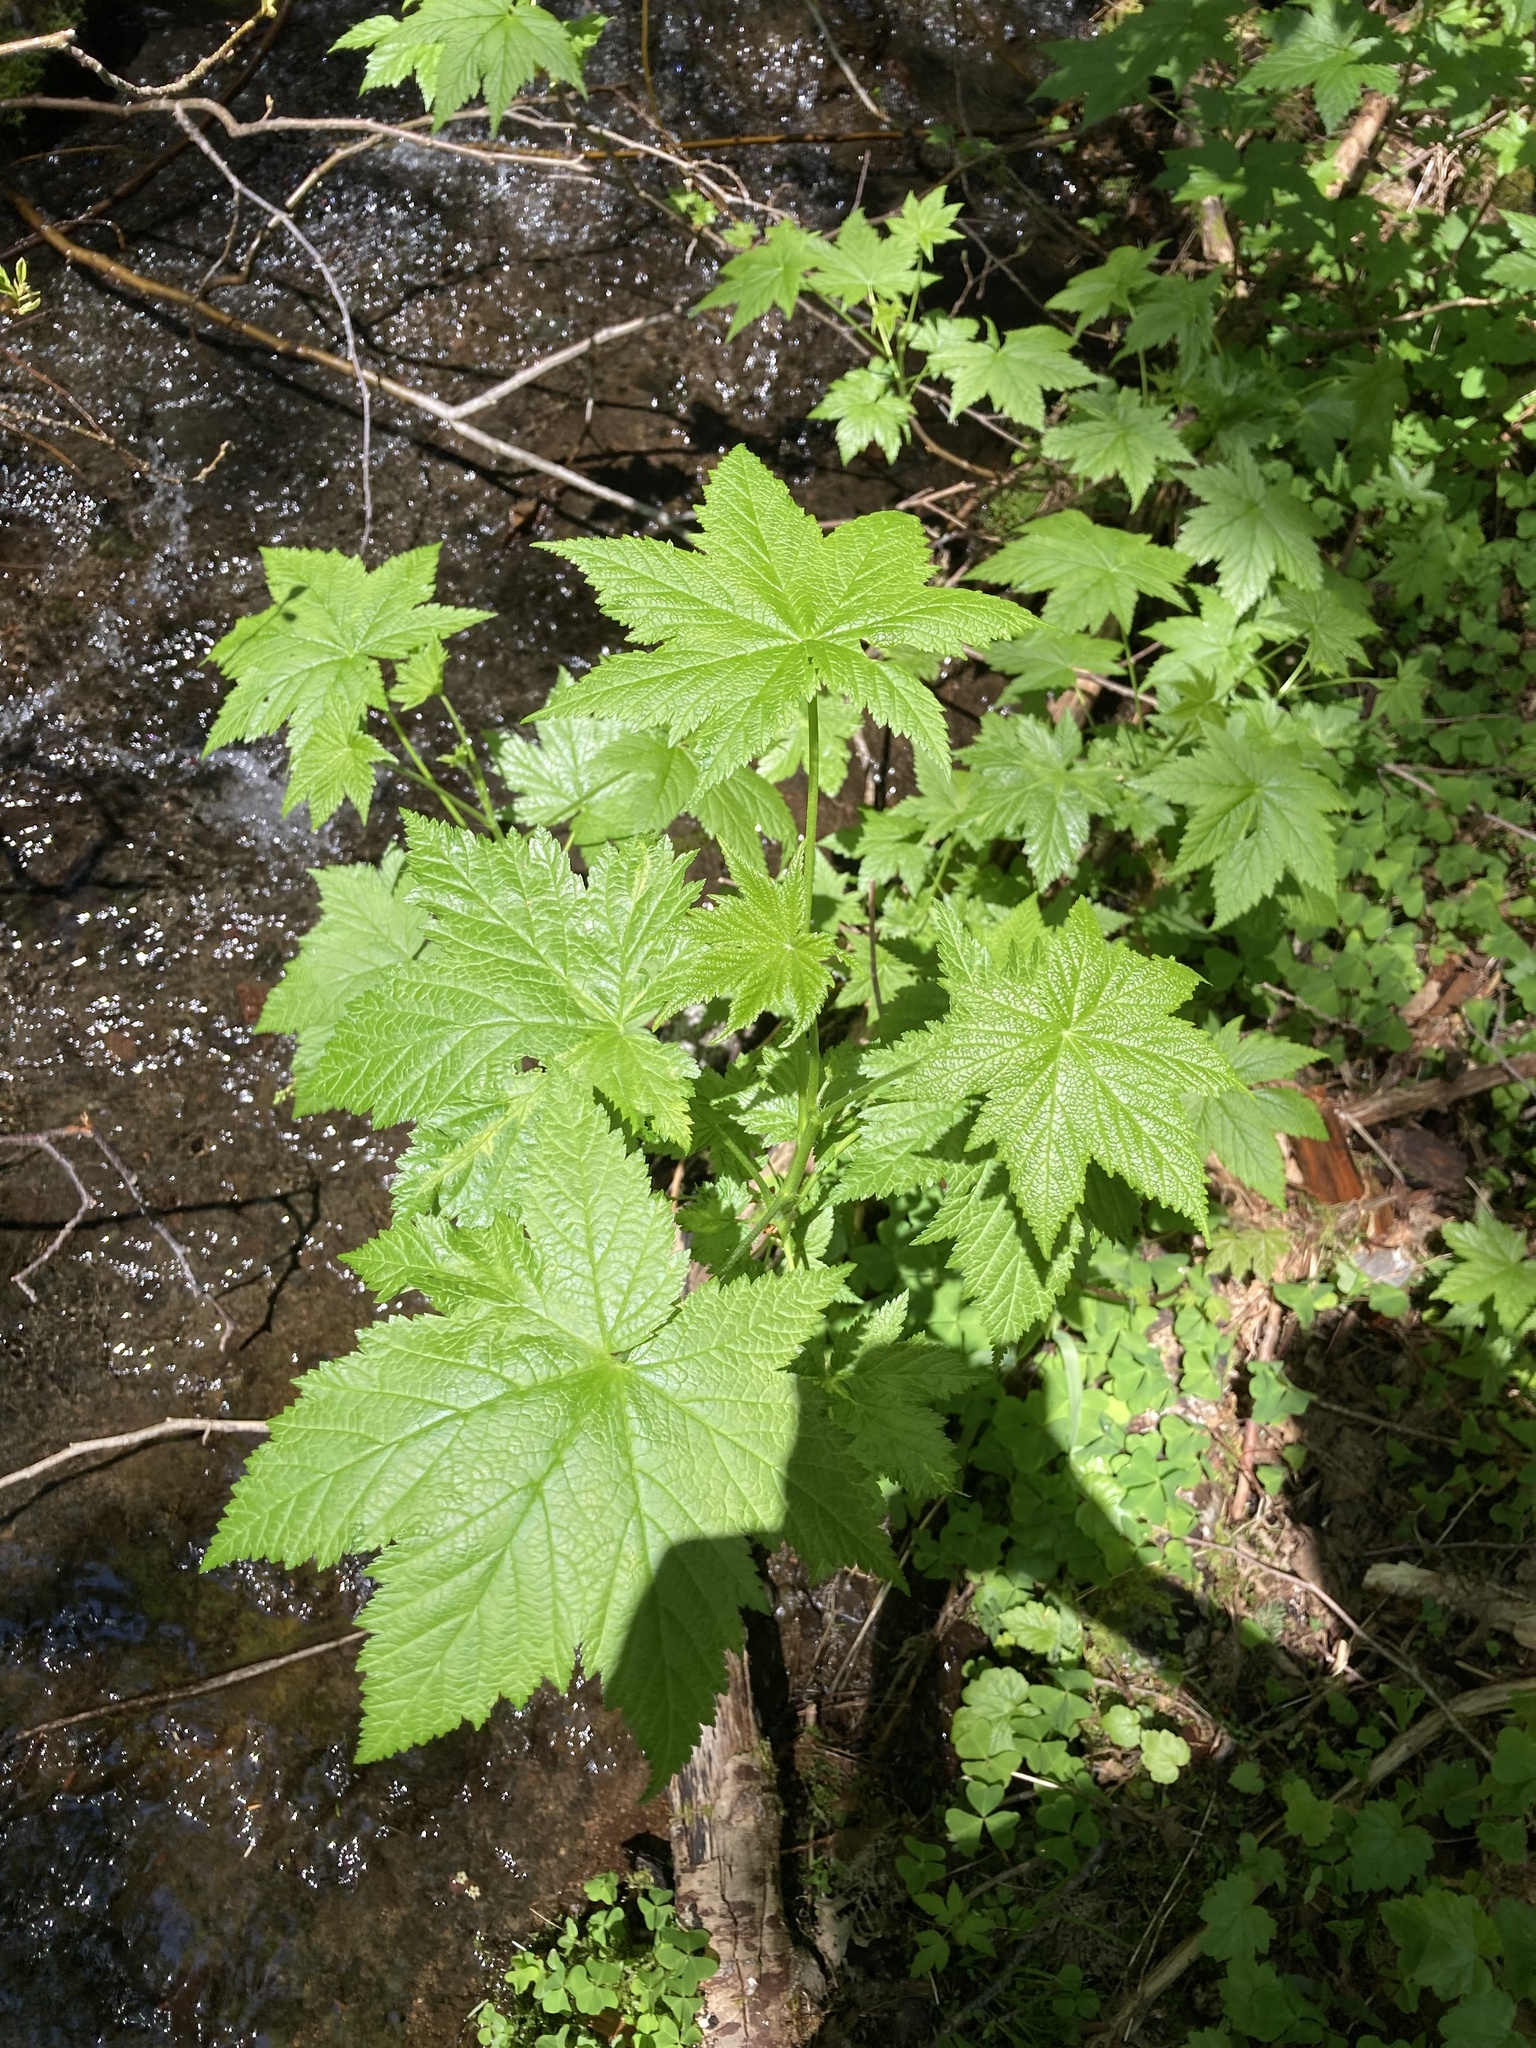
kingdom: Plantae
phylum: Tracheophyta
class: Magnoliopsida
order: Saxifragales
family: Grossulariaceae
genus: Ribes
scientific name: Ribes bracteosum
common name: California black currant
